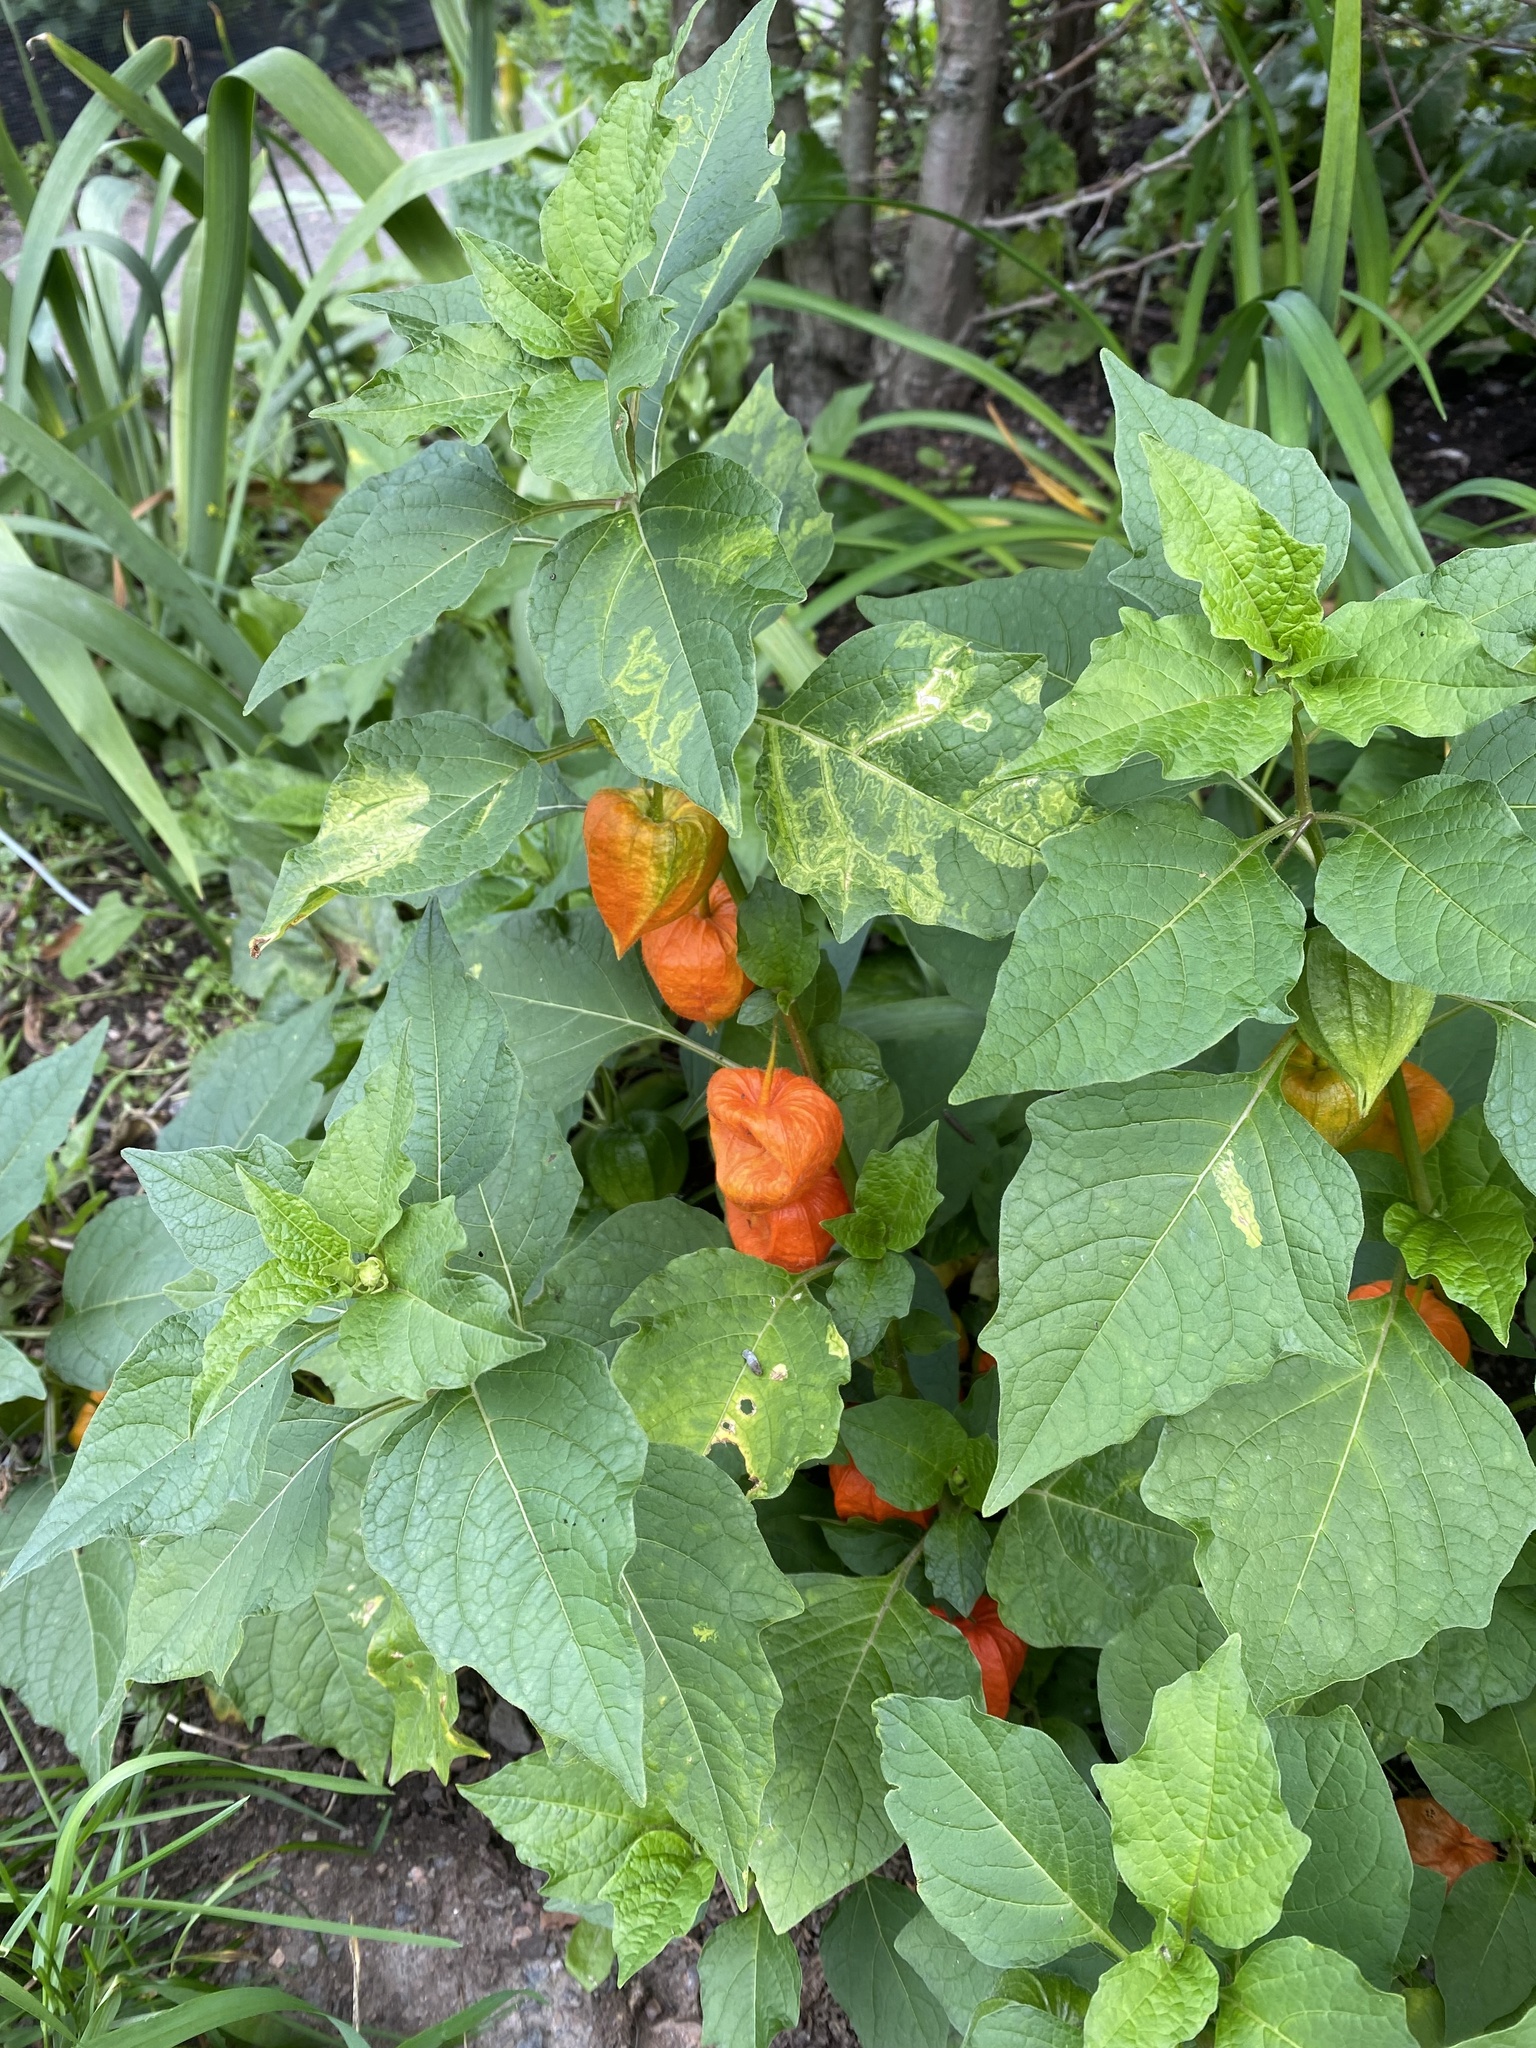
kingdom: Plantae
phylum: Tracheophyta
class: Magnoliopsida
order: Solanales
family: Solanaceae
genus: Alkekengi
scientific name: Alkekengi officinarum
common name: Japanese-lantern
